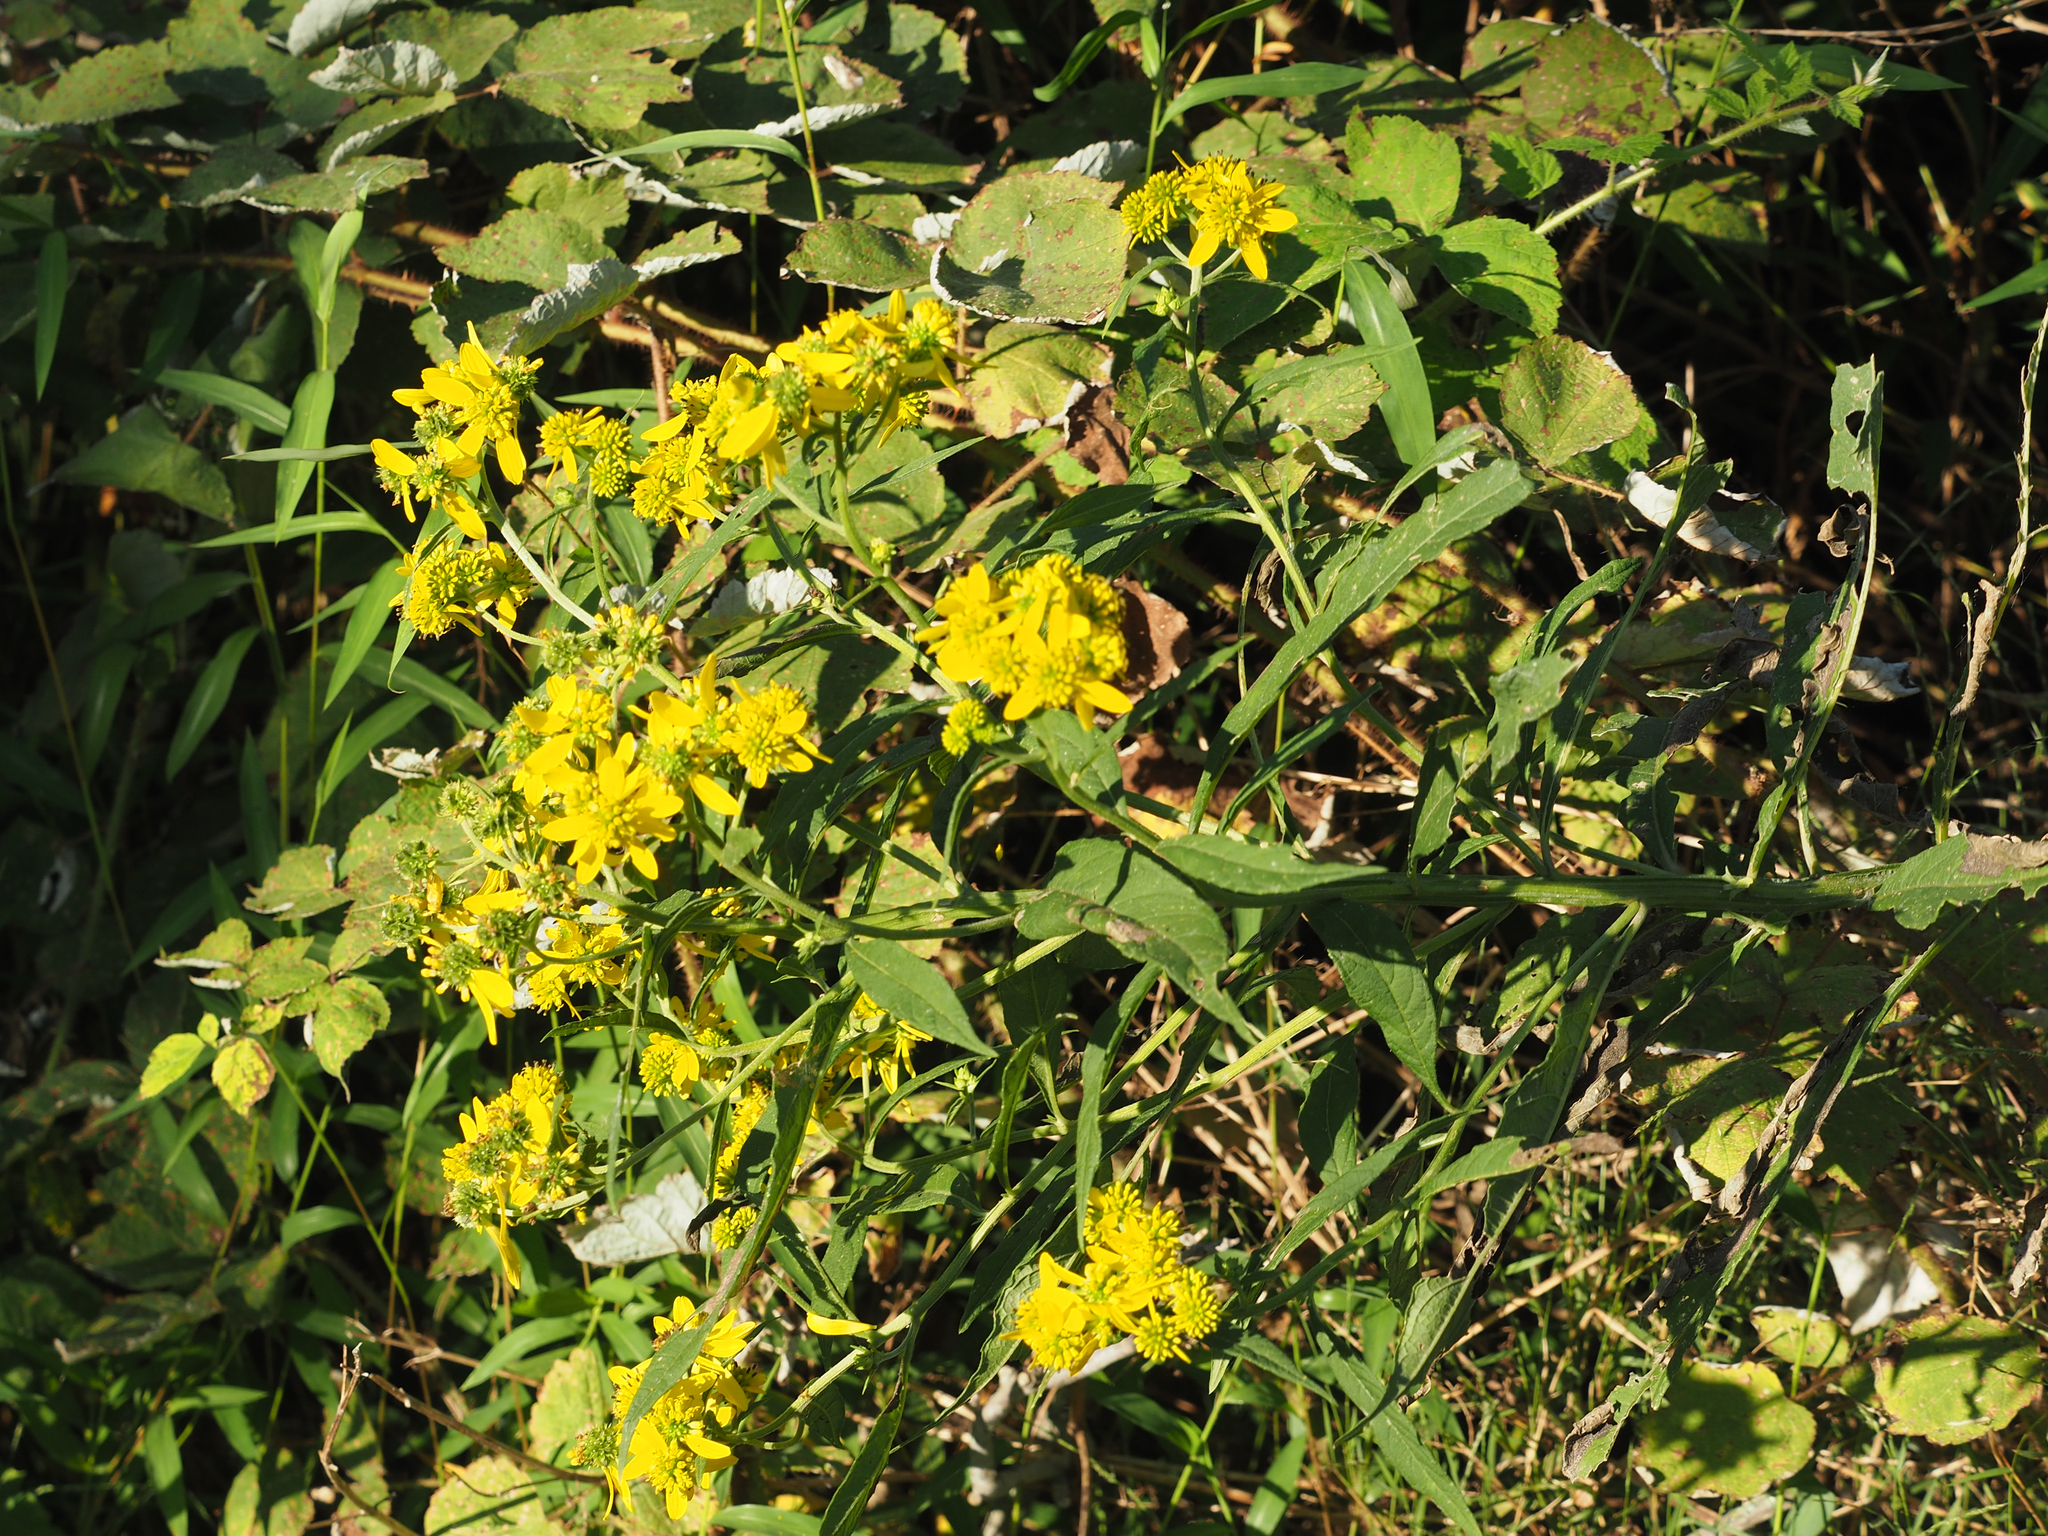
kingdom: Plantae
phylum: Tracheophyta
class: Magnoliopsida
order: Asterales
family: Asteraceae
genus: Verbesina
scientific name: Verbesina alternifolia
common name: Wingstem
